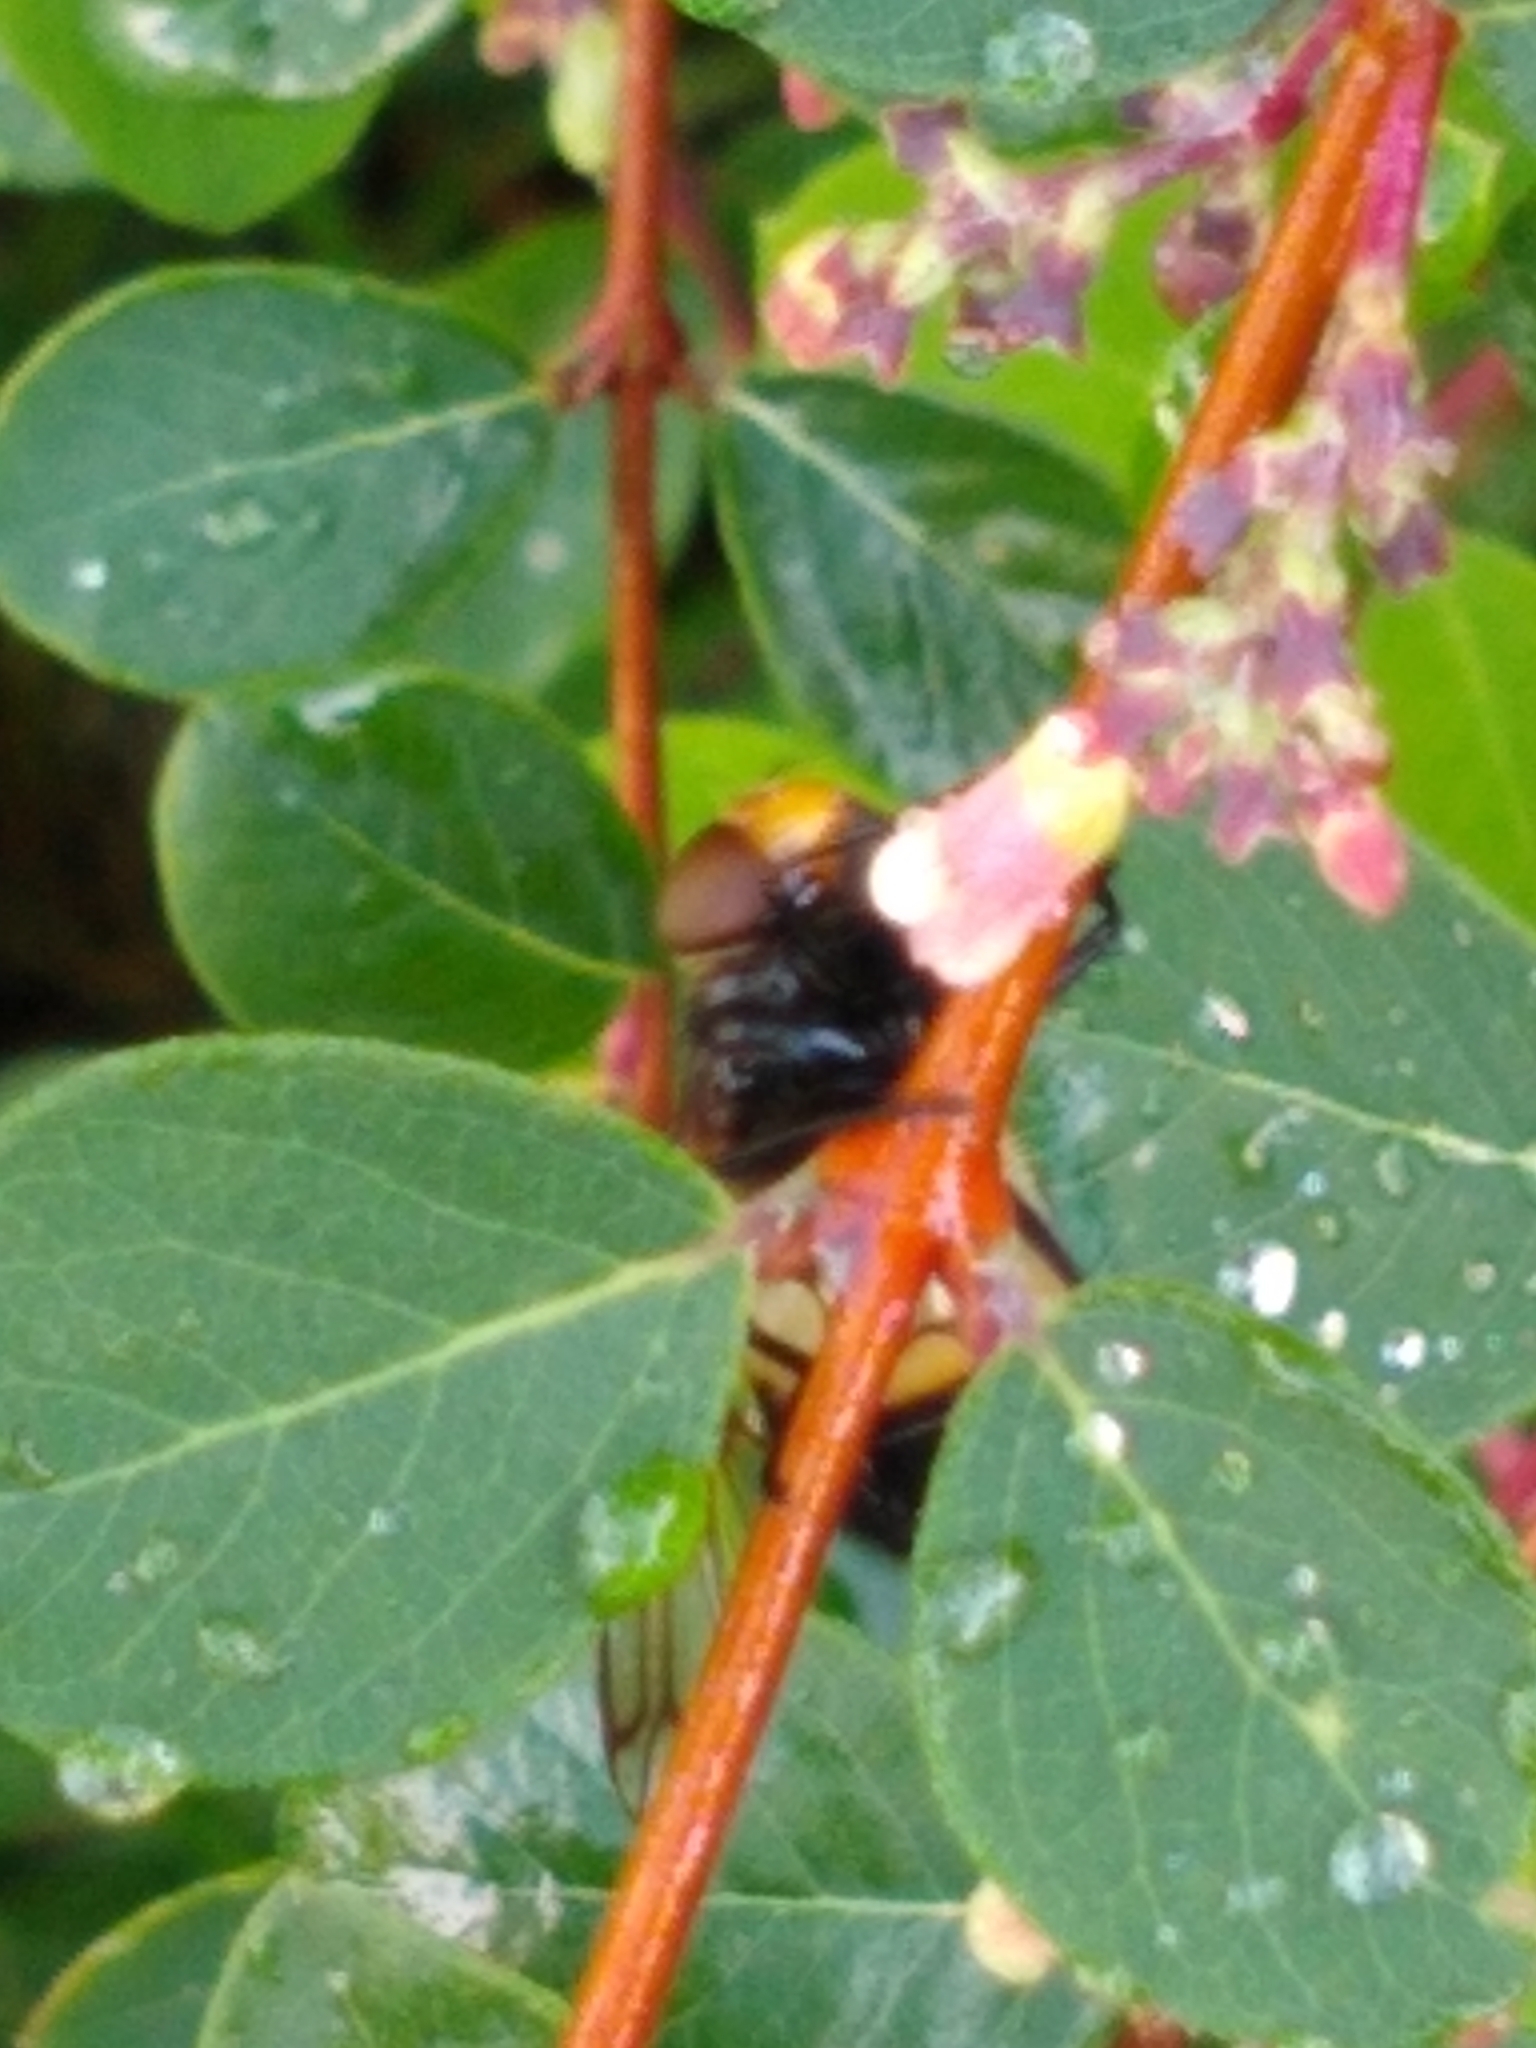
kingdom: Animalia
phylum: Arthropoda
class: Insecta
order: Diptera
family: Syrphidae
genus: Volucella
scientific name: Volucella pellucens
